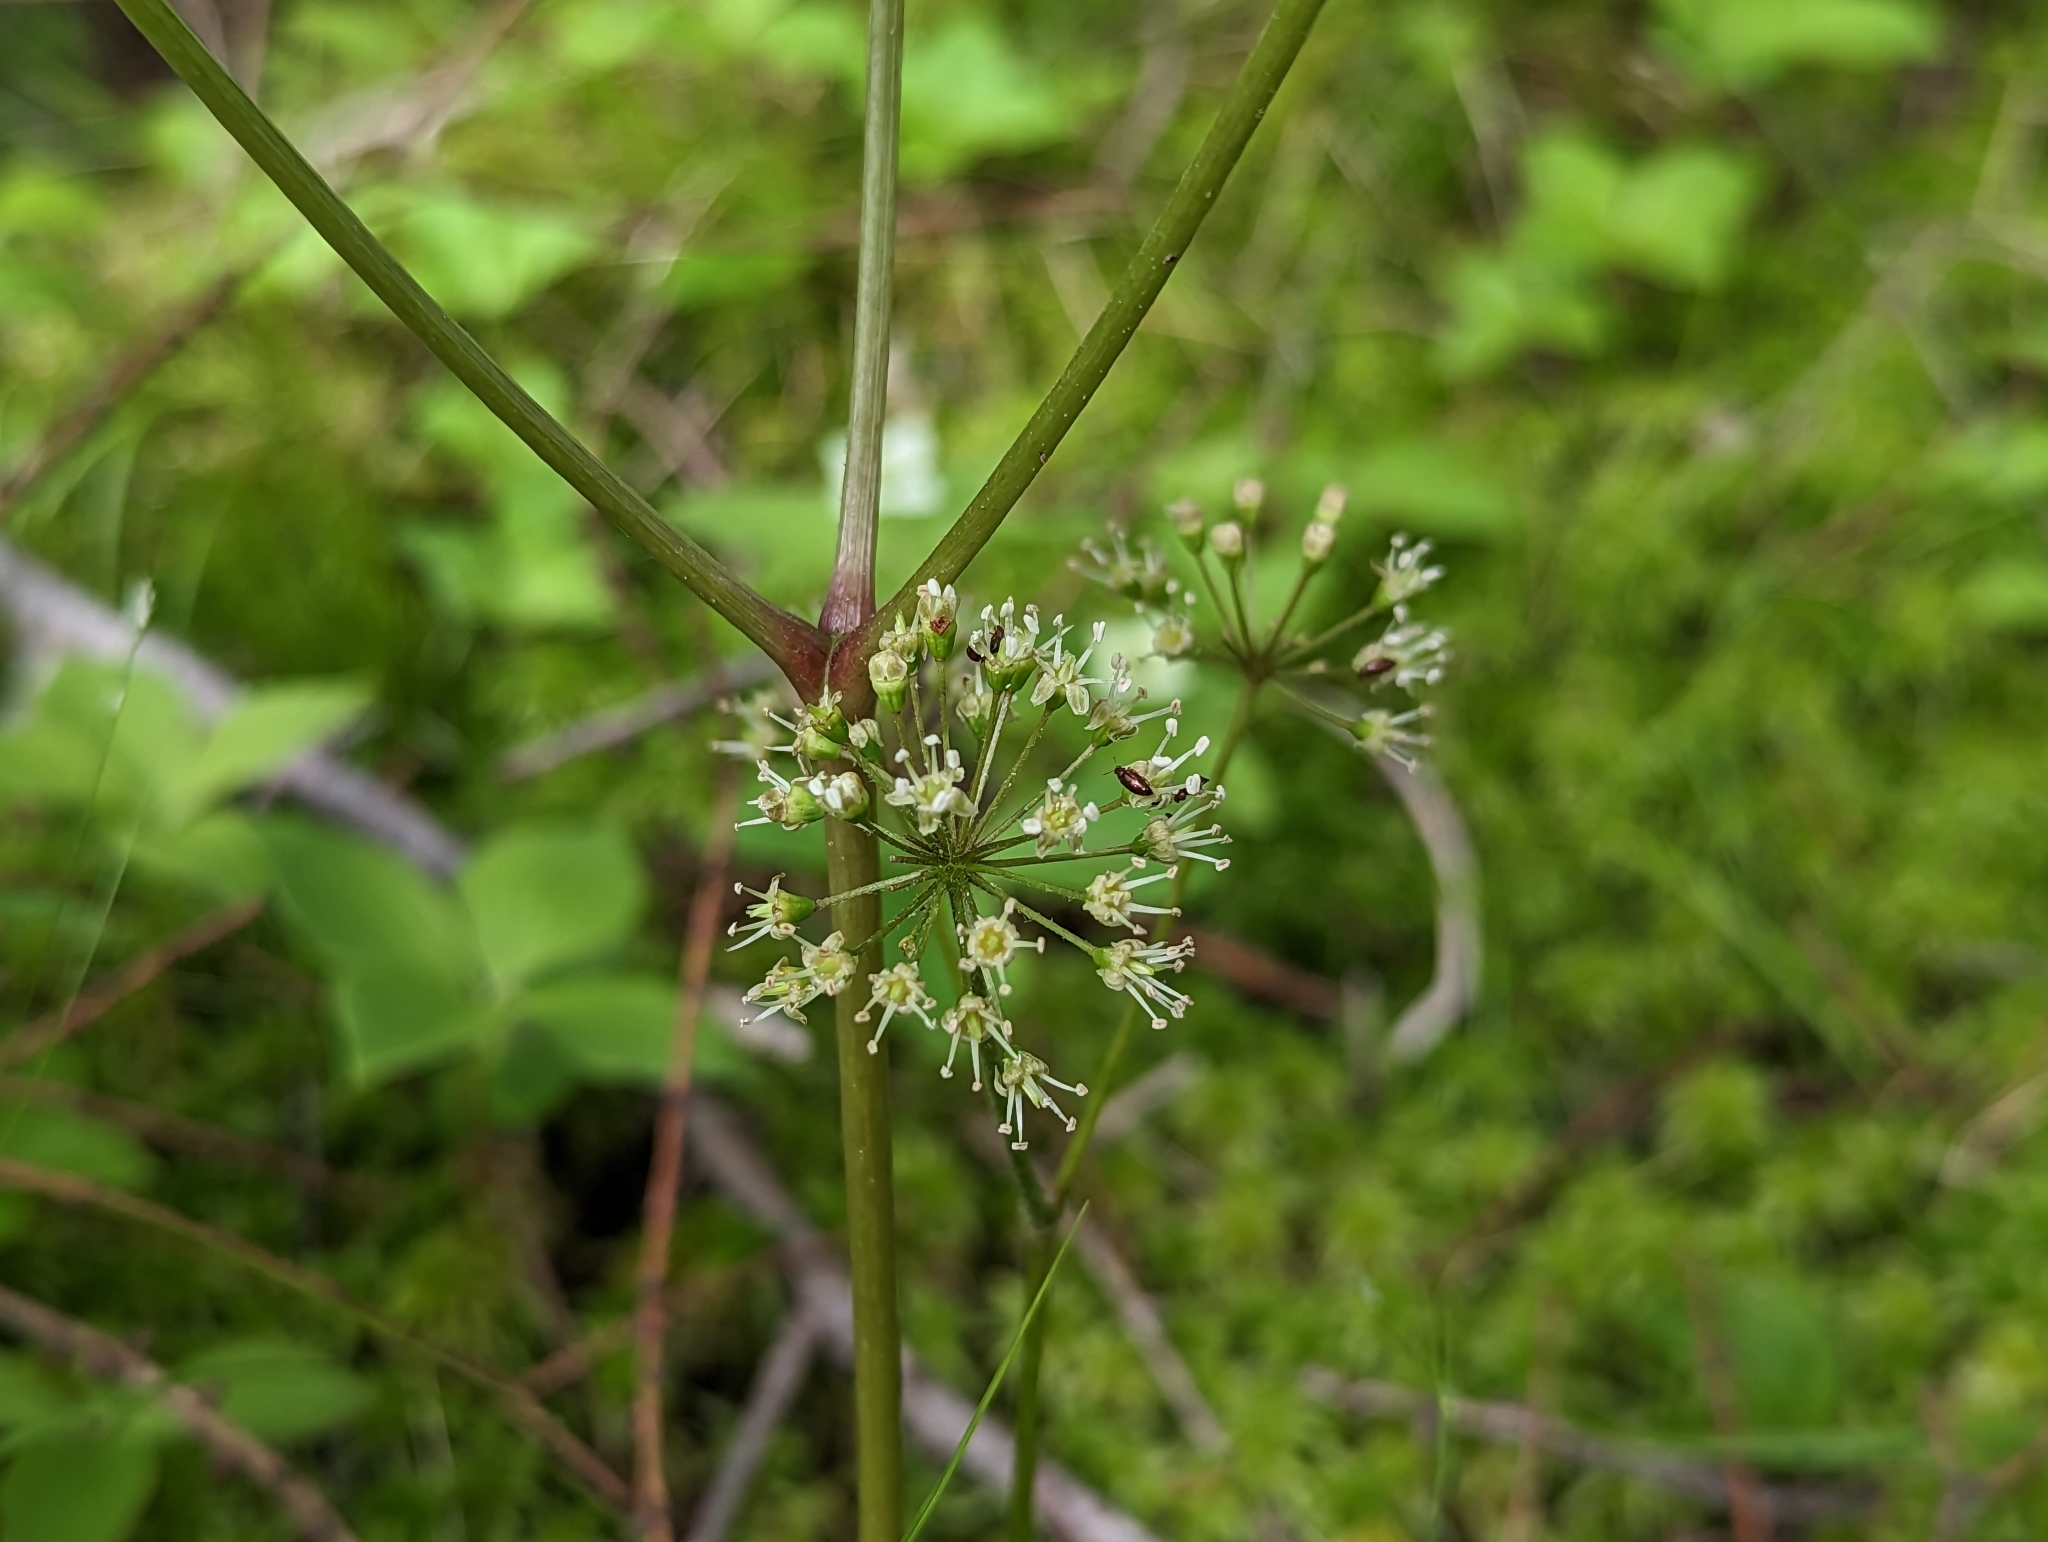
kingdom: Plantae
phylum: Tracheophyta
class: Magnoliopsida
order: Apiales
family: Araliaceae
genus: Aralia
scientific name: Aralia nudicaulis
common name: Wild sarsaparilla
